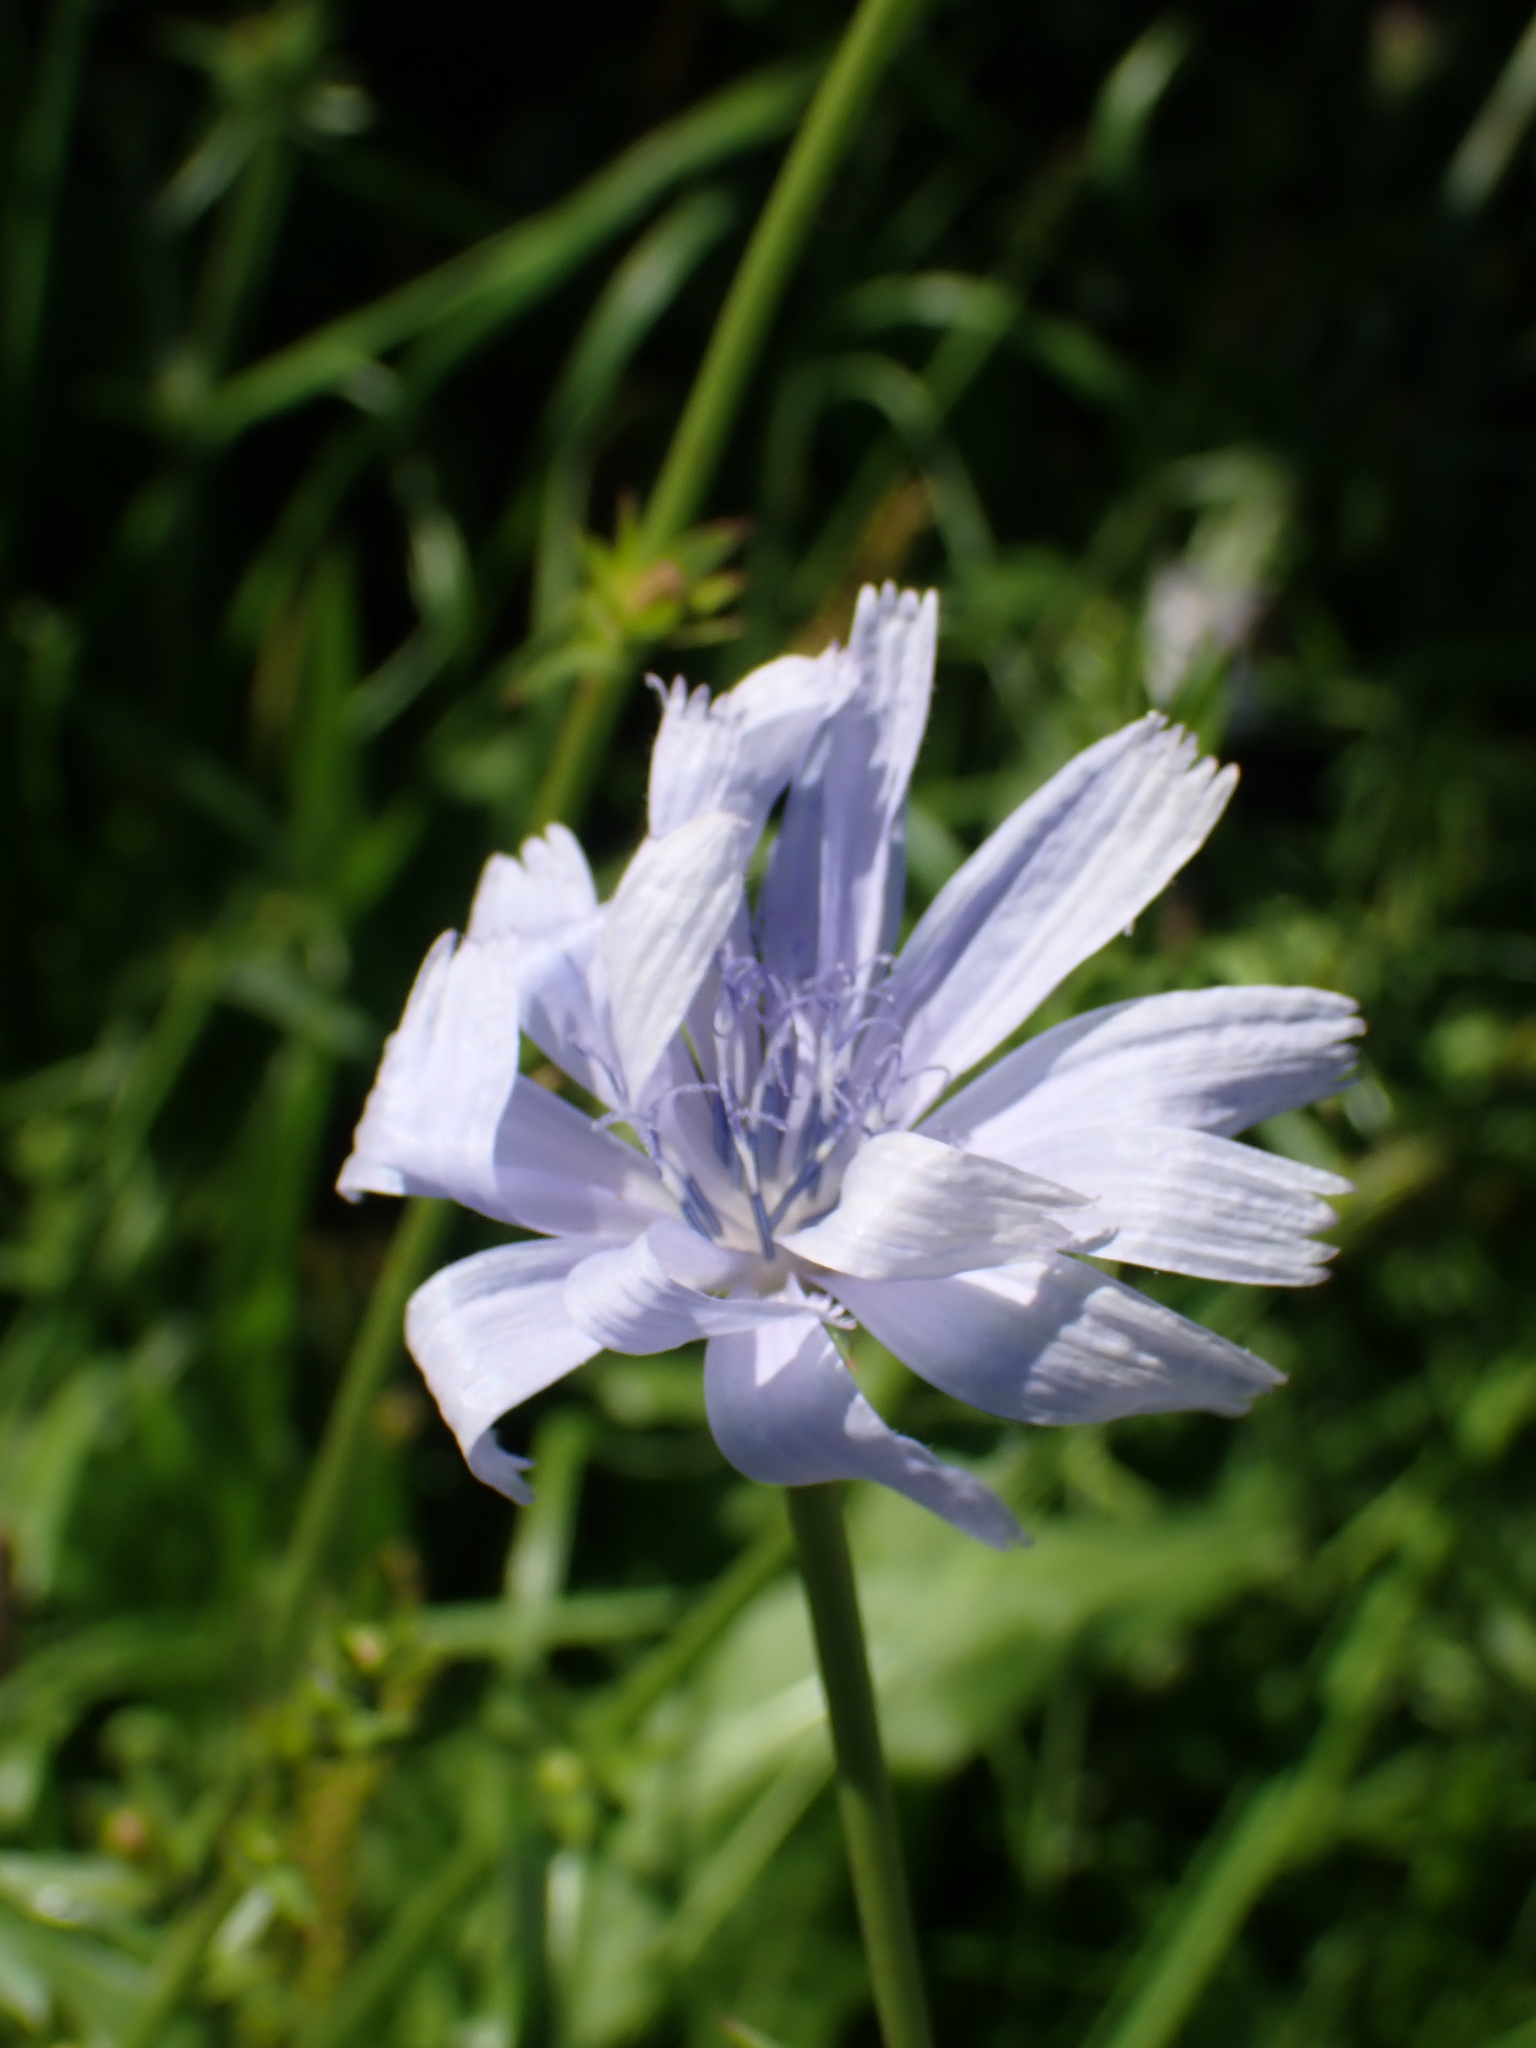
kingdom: Plantae
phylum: Tracheophyta
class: Magnoliopsida
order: Asterales
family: Asteraceae
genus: Cichorium
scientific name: Cichorium intybus
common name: Chicory
